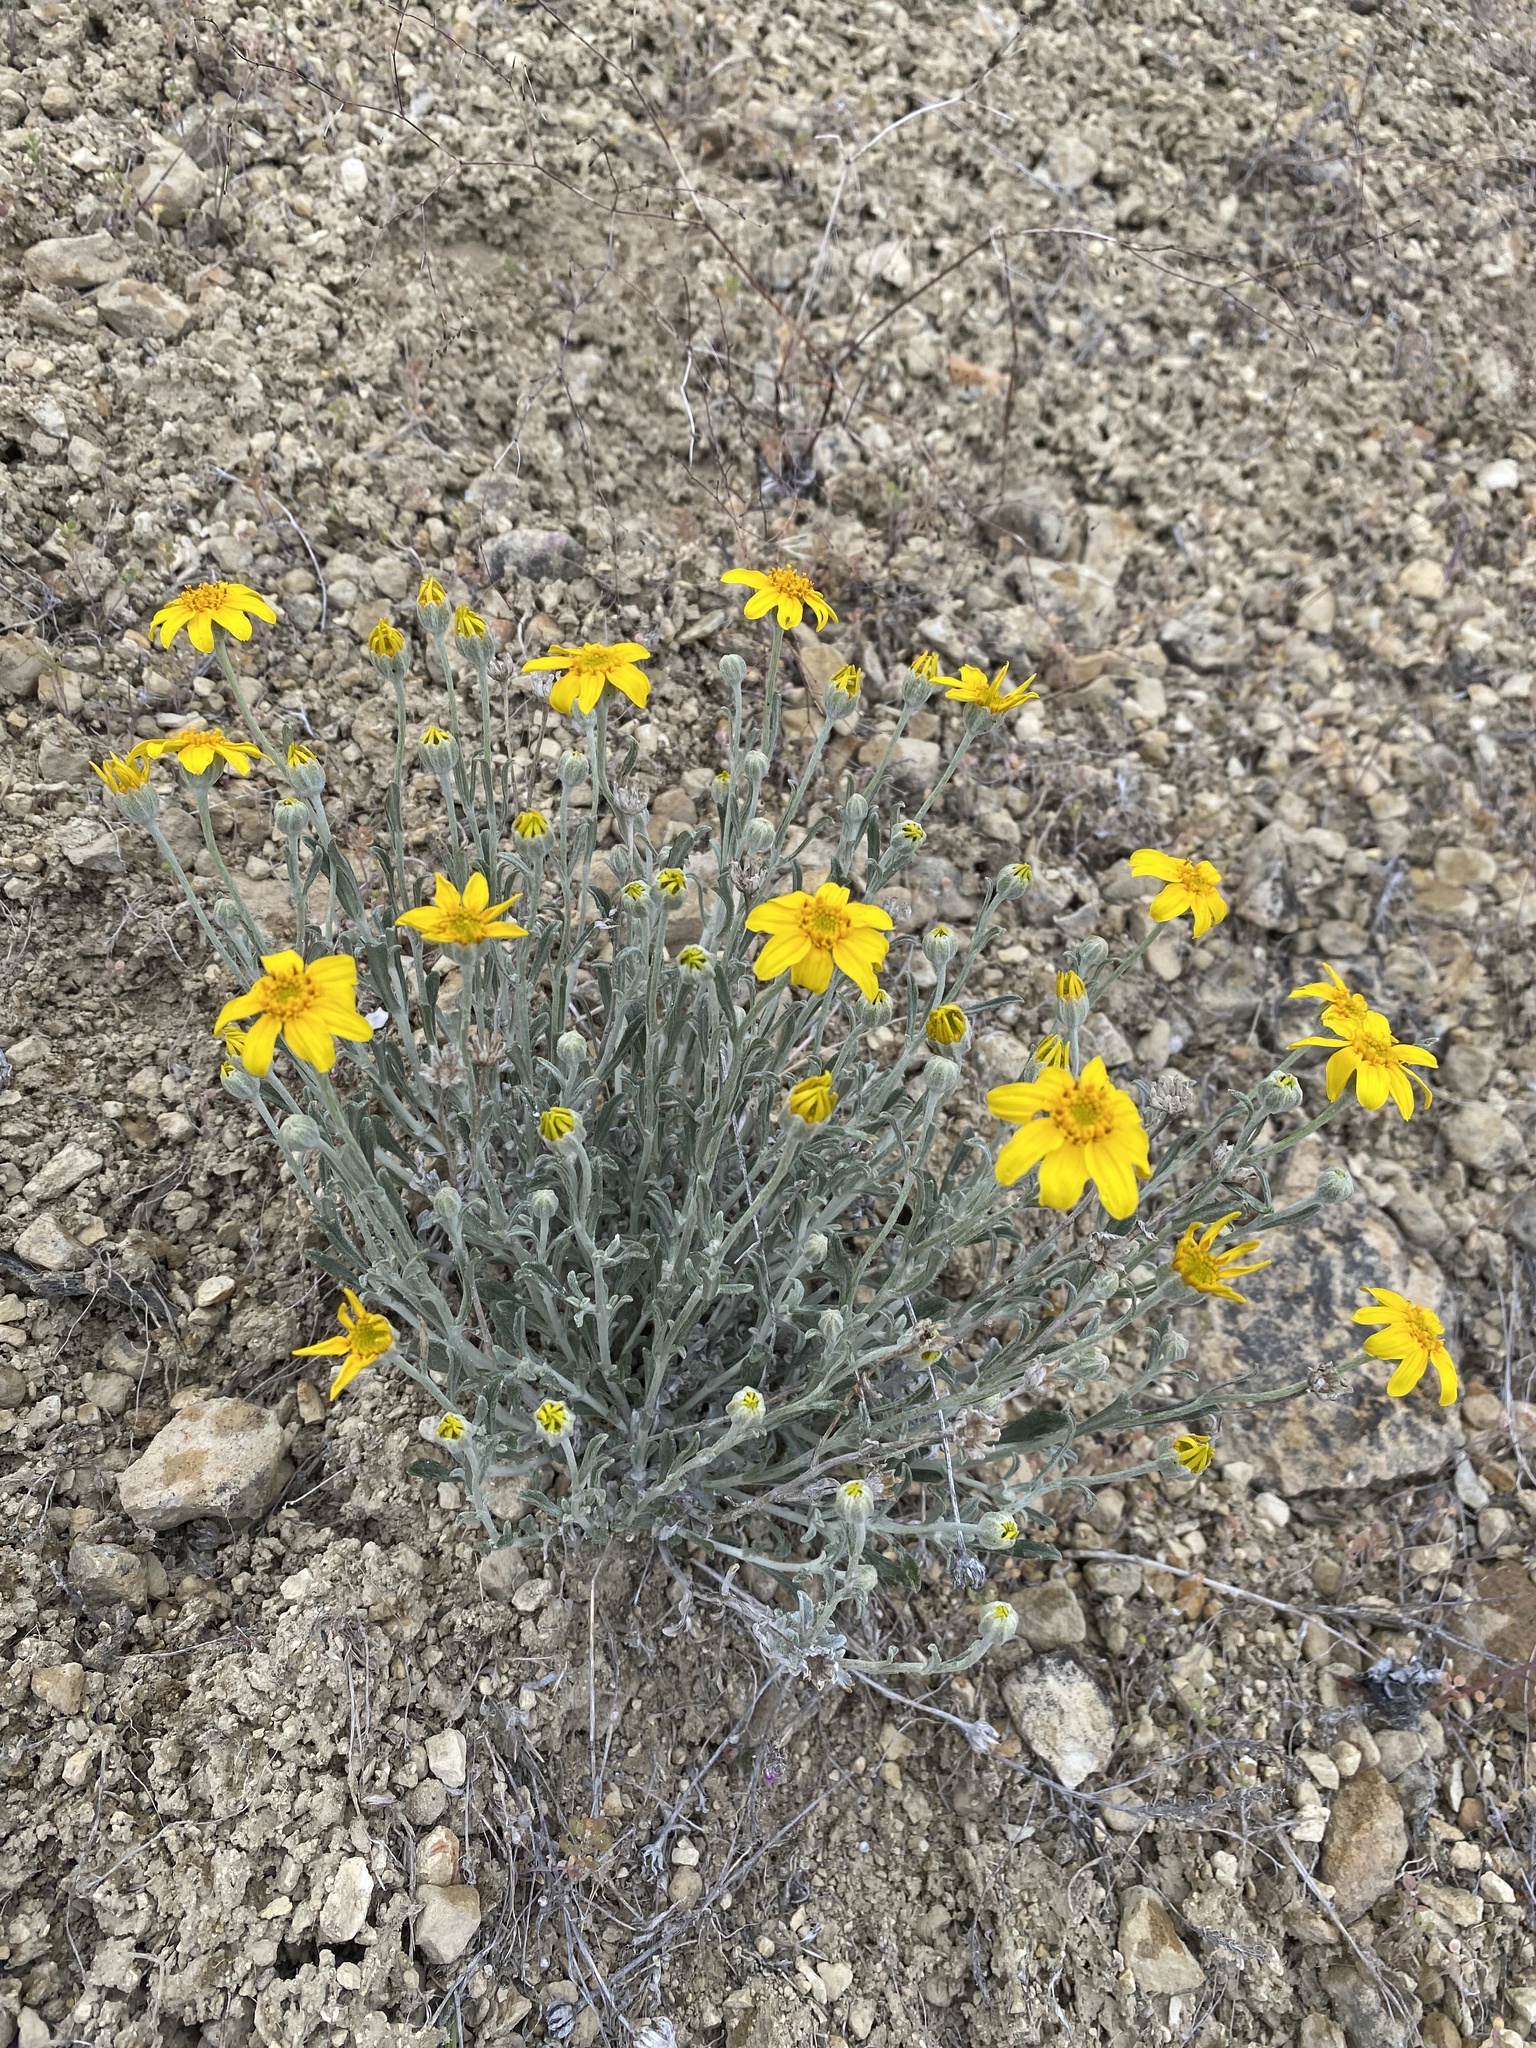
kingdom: Plantae
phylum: Tracheophyta
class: Magnoliopsida
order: Asterales
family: Asteraceae
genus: Eriophyllum
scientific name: Eriophyllum lanatum
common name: Common woolly-sunflower
